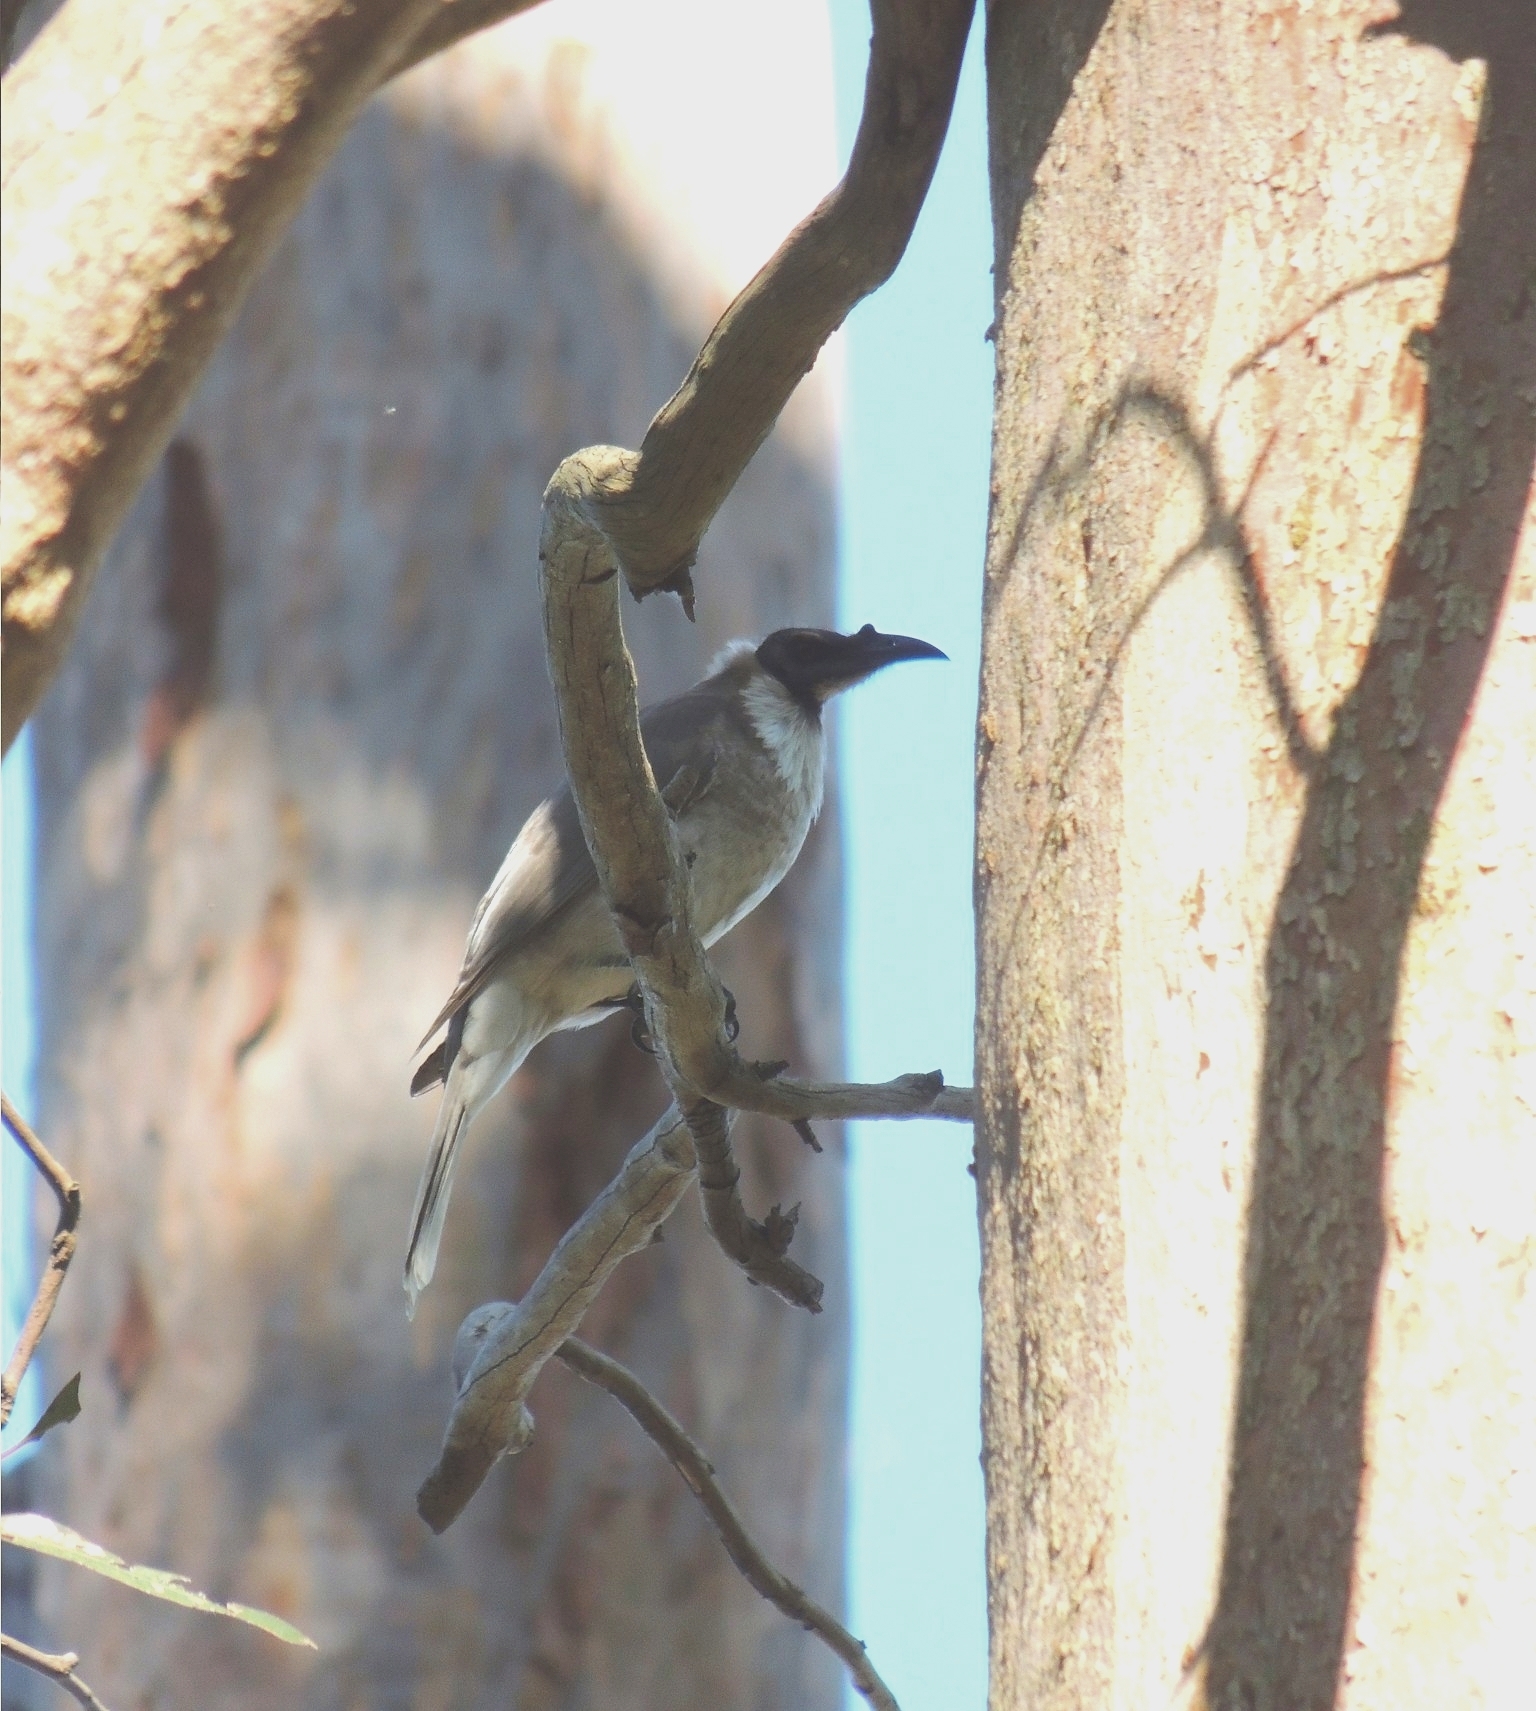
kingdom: Animalia
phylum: Chordata
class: Aves
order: Passeriformes
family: Meliphagidae
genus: Philemon
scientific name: Philemon corniculatus
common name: Noisy friarbird
